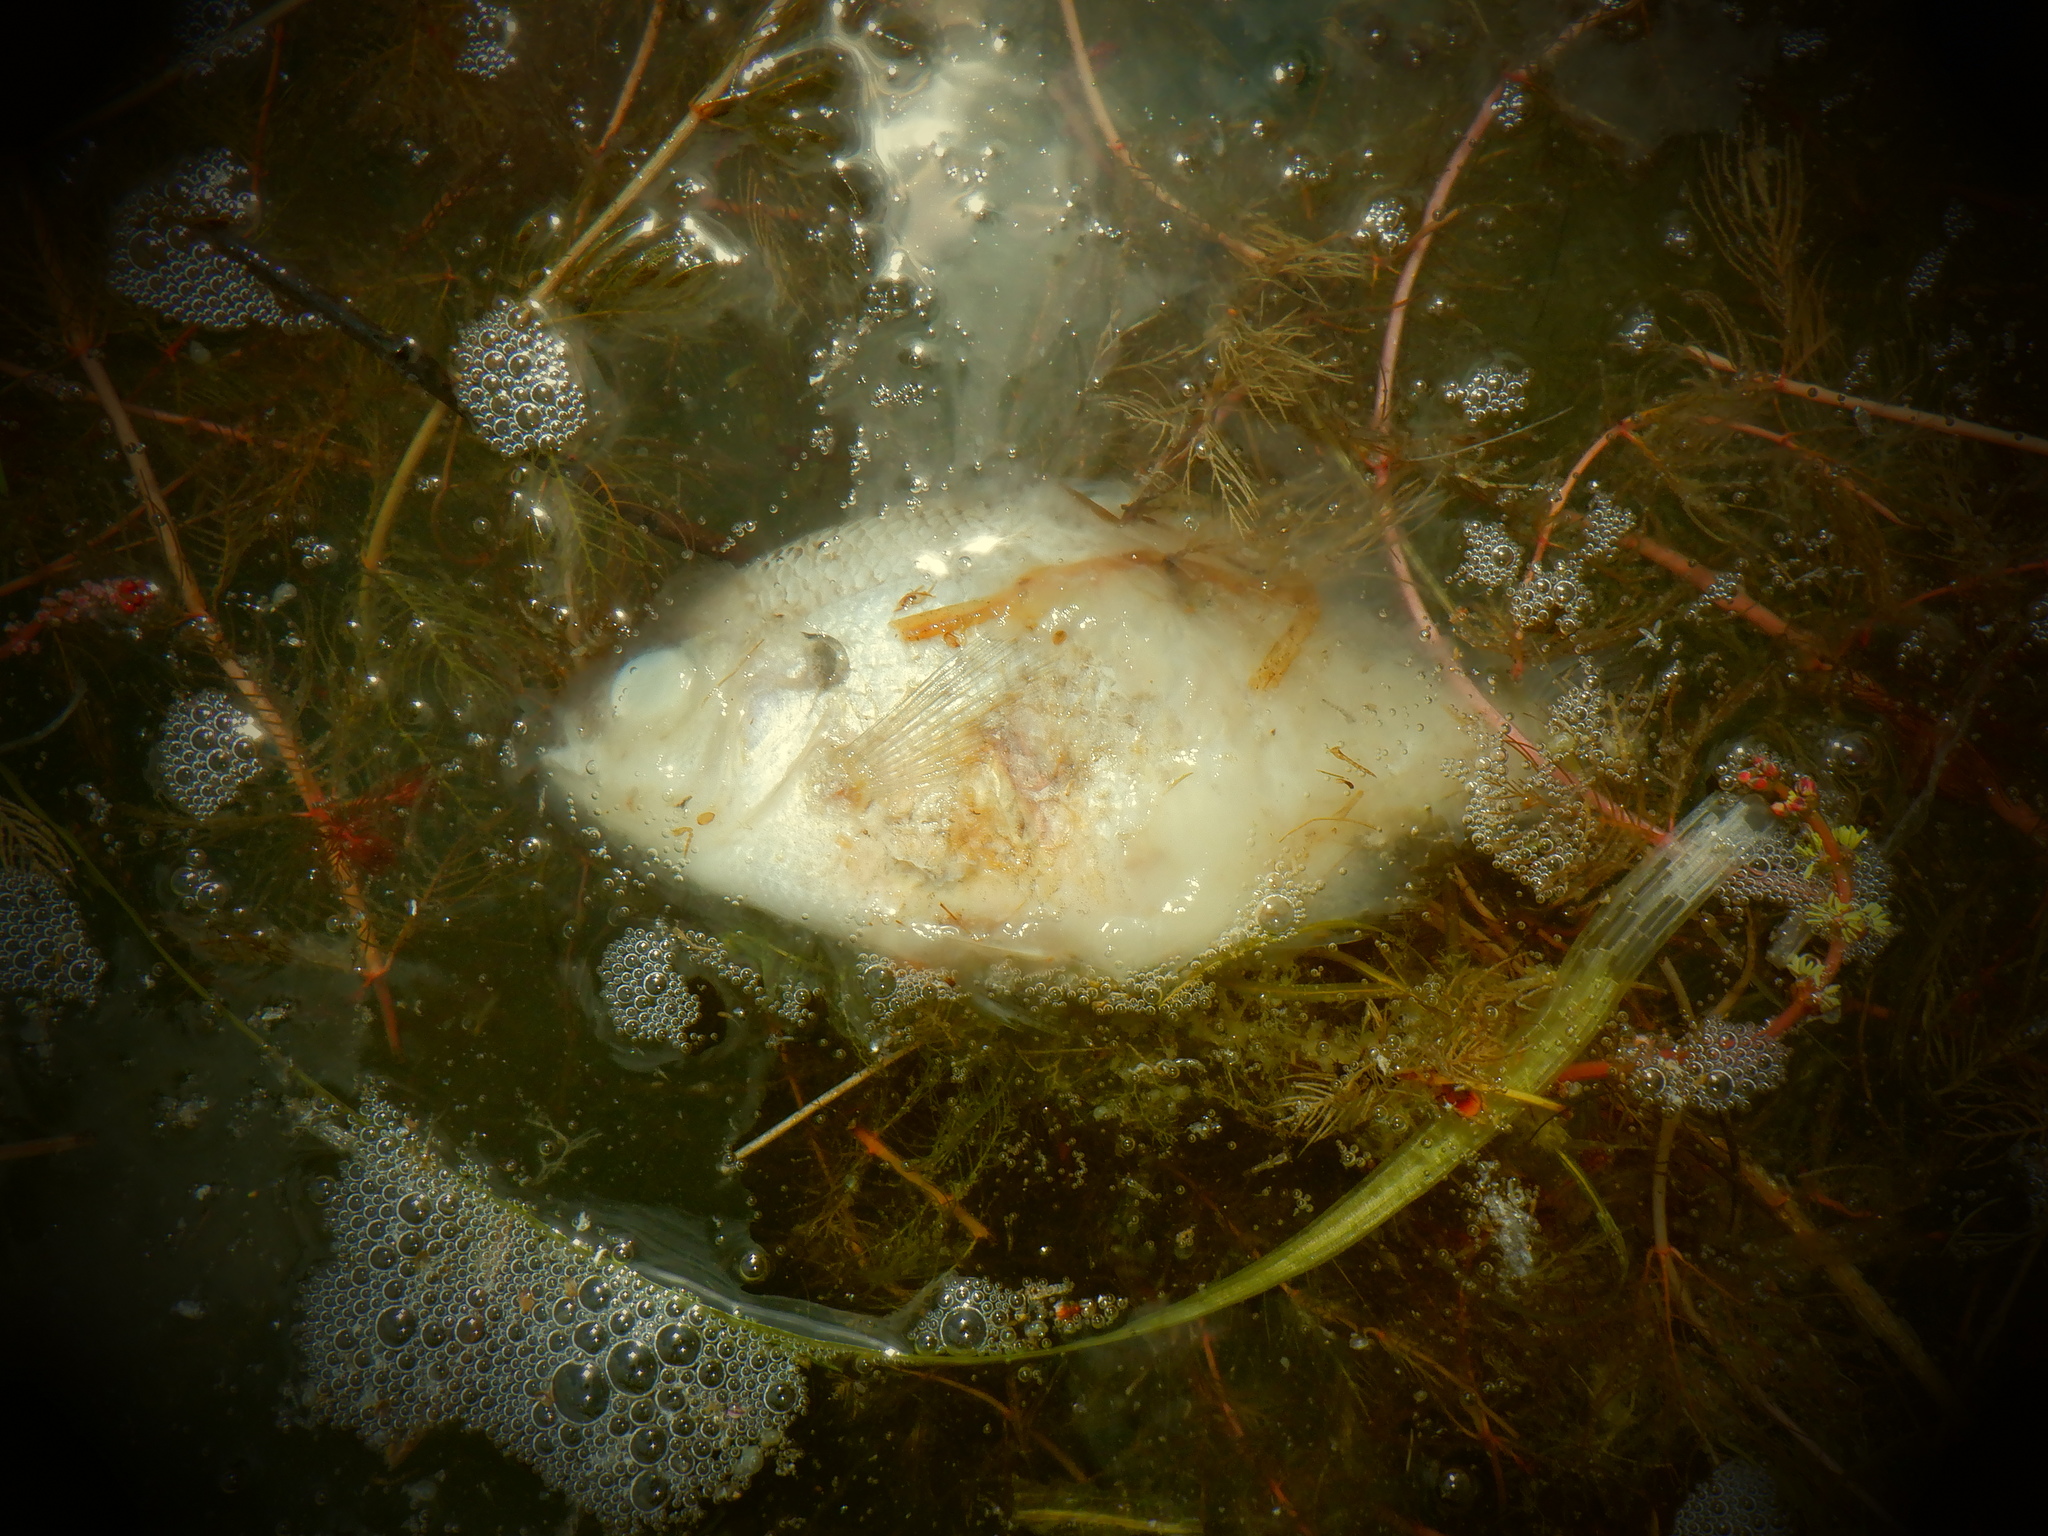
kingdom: Animalia
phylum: Chordata
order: Perciformes
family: Centrarchidae
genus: Lepomis
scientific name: Lepomis macrochirus
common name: Bluegill
